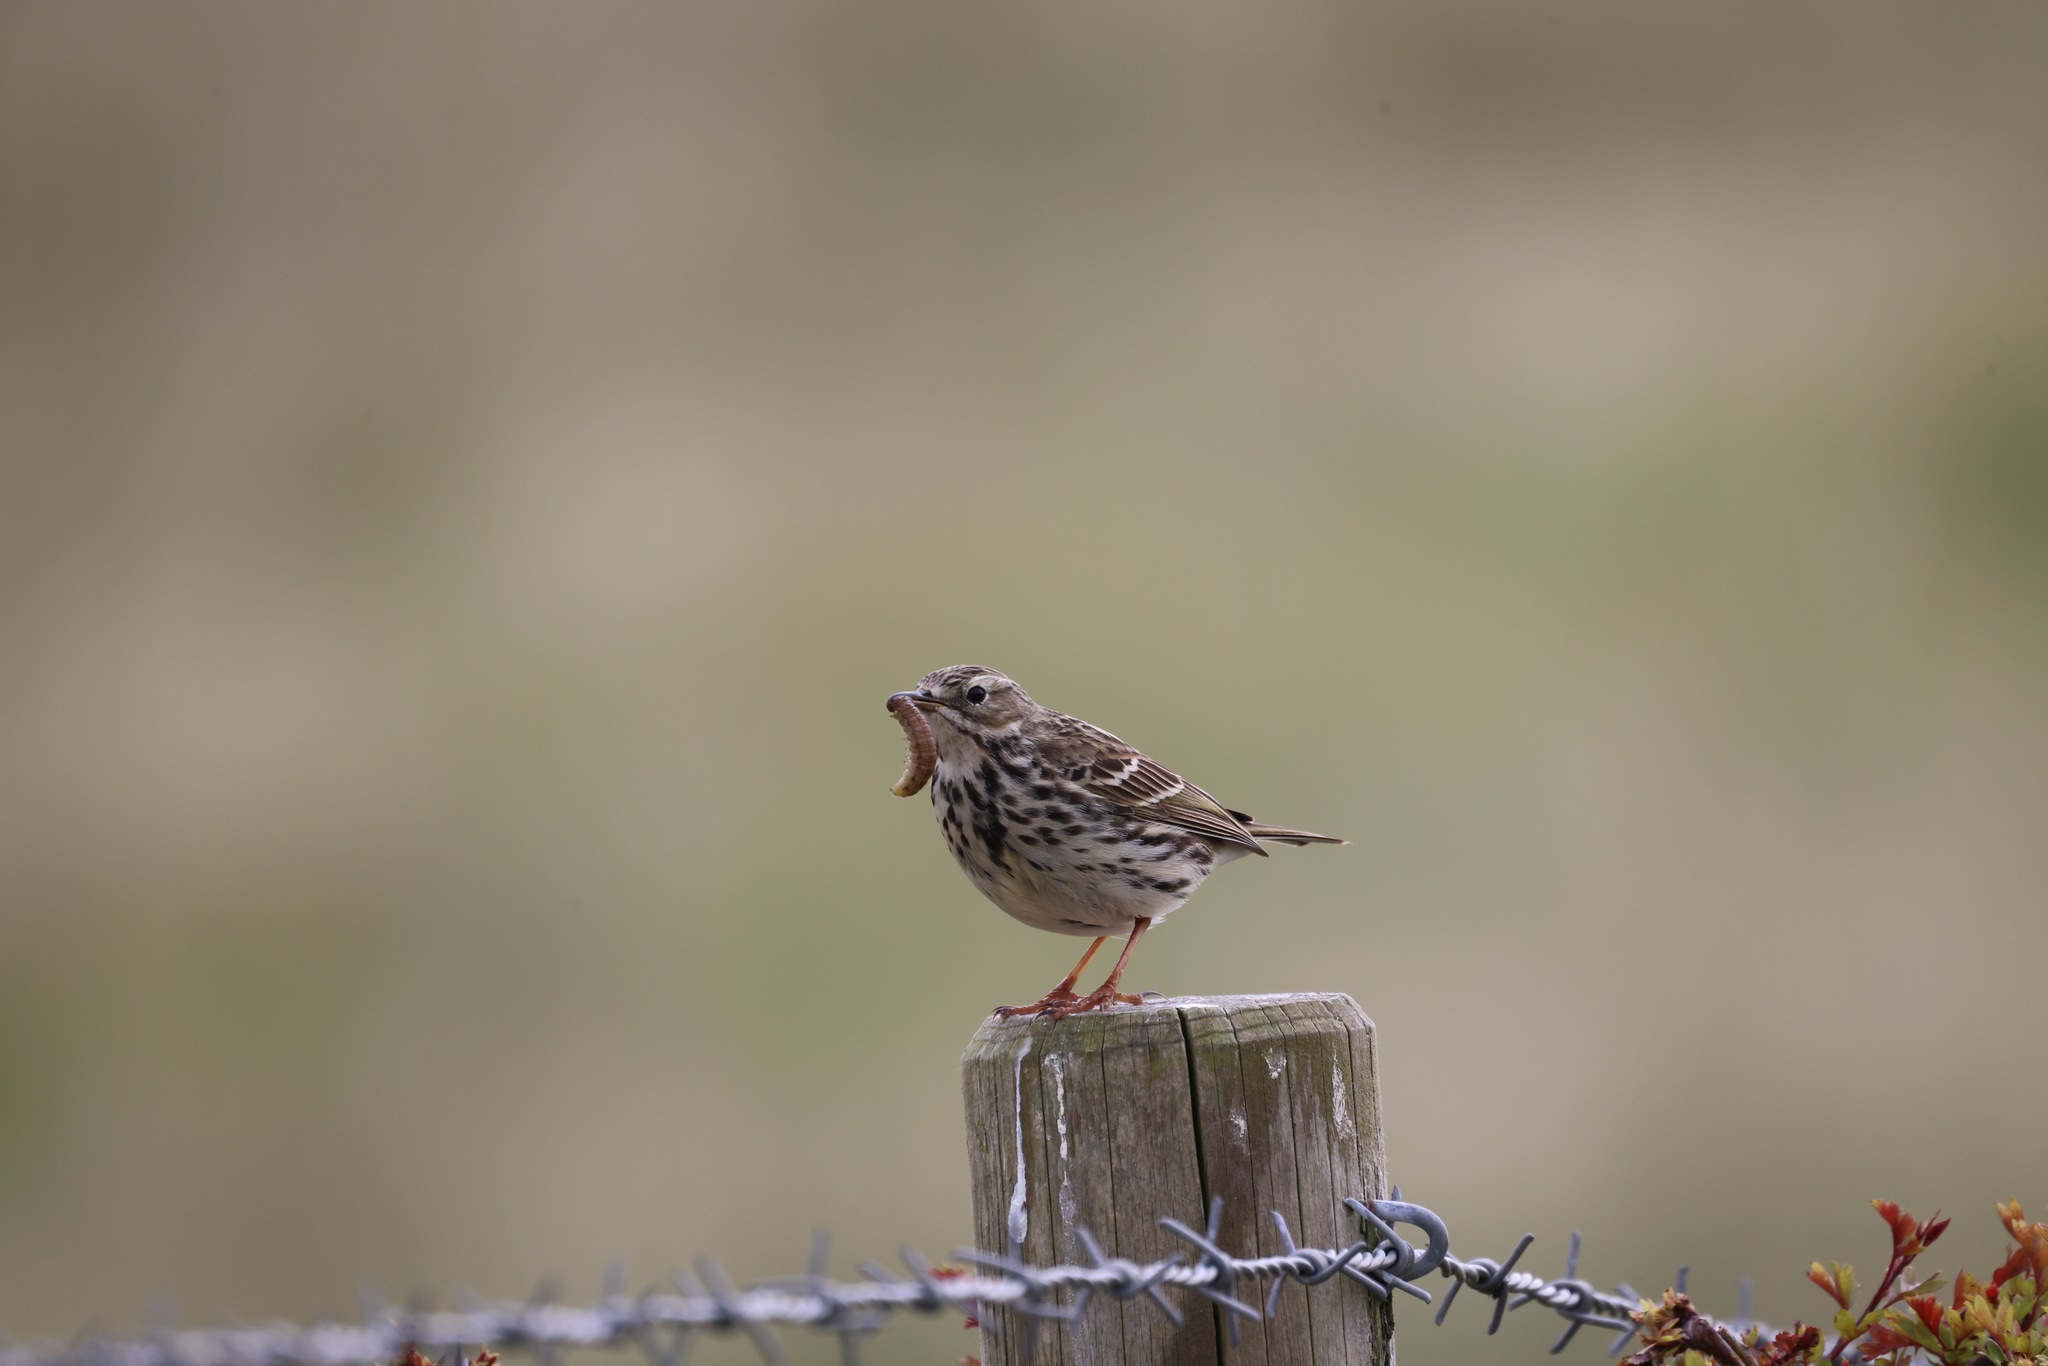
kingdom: Animalia
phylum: Chordata
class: Aves
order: Passeriformes
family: Motacillidae
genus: Anthus
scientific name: Anthus pratensis
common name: Meadow pipit
